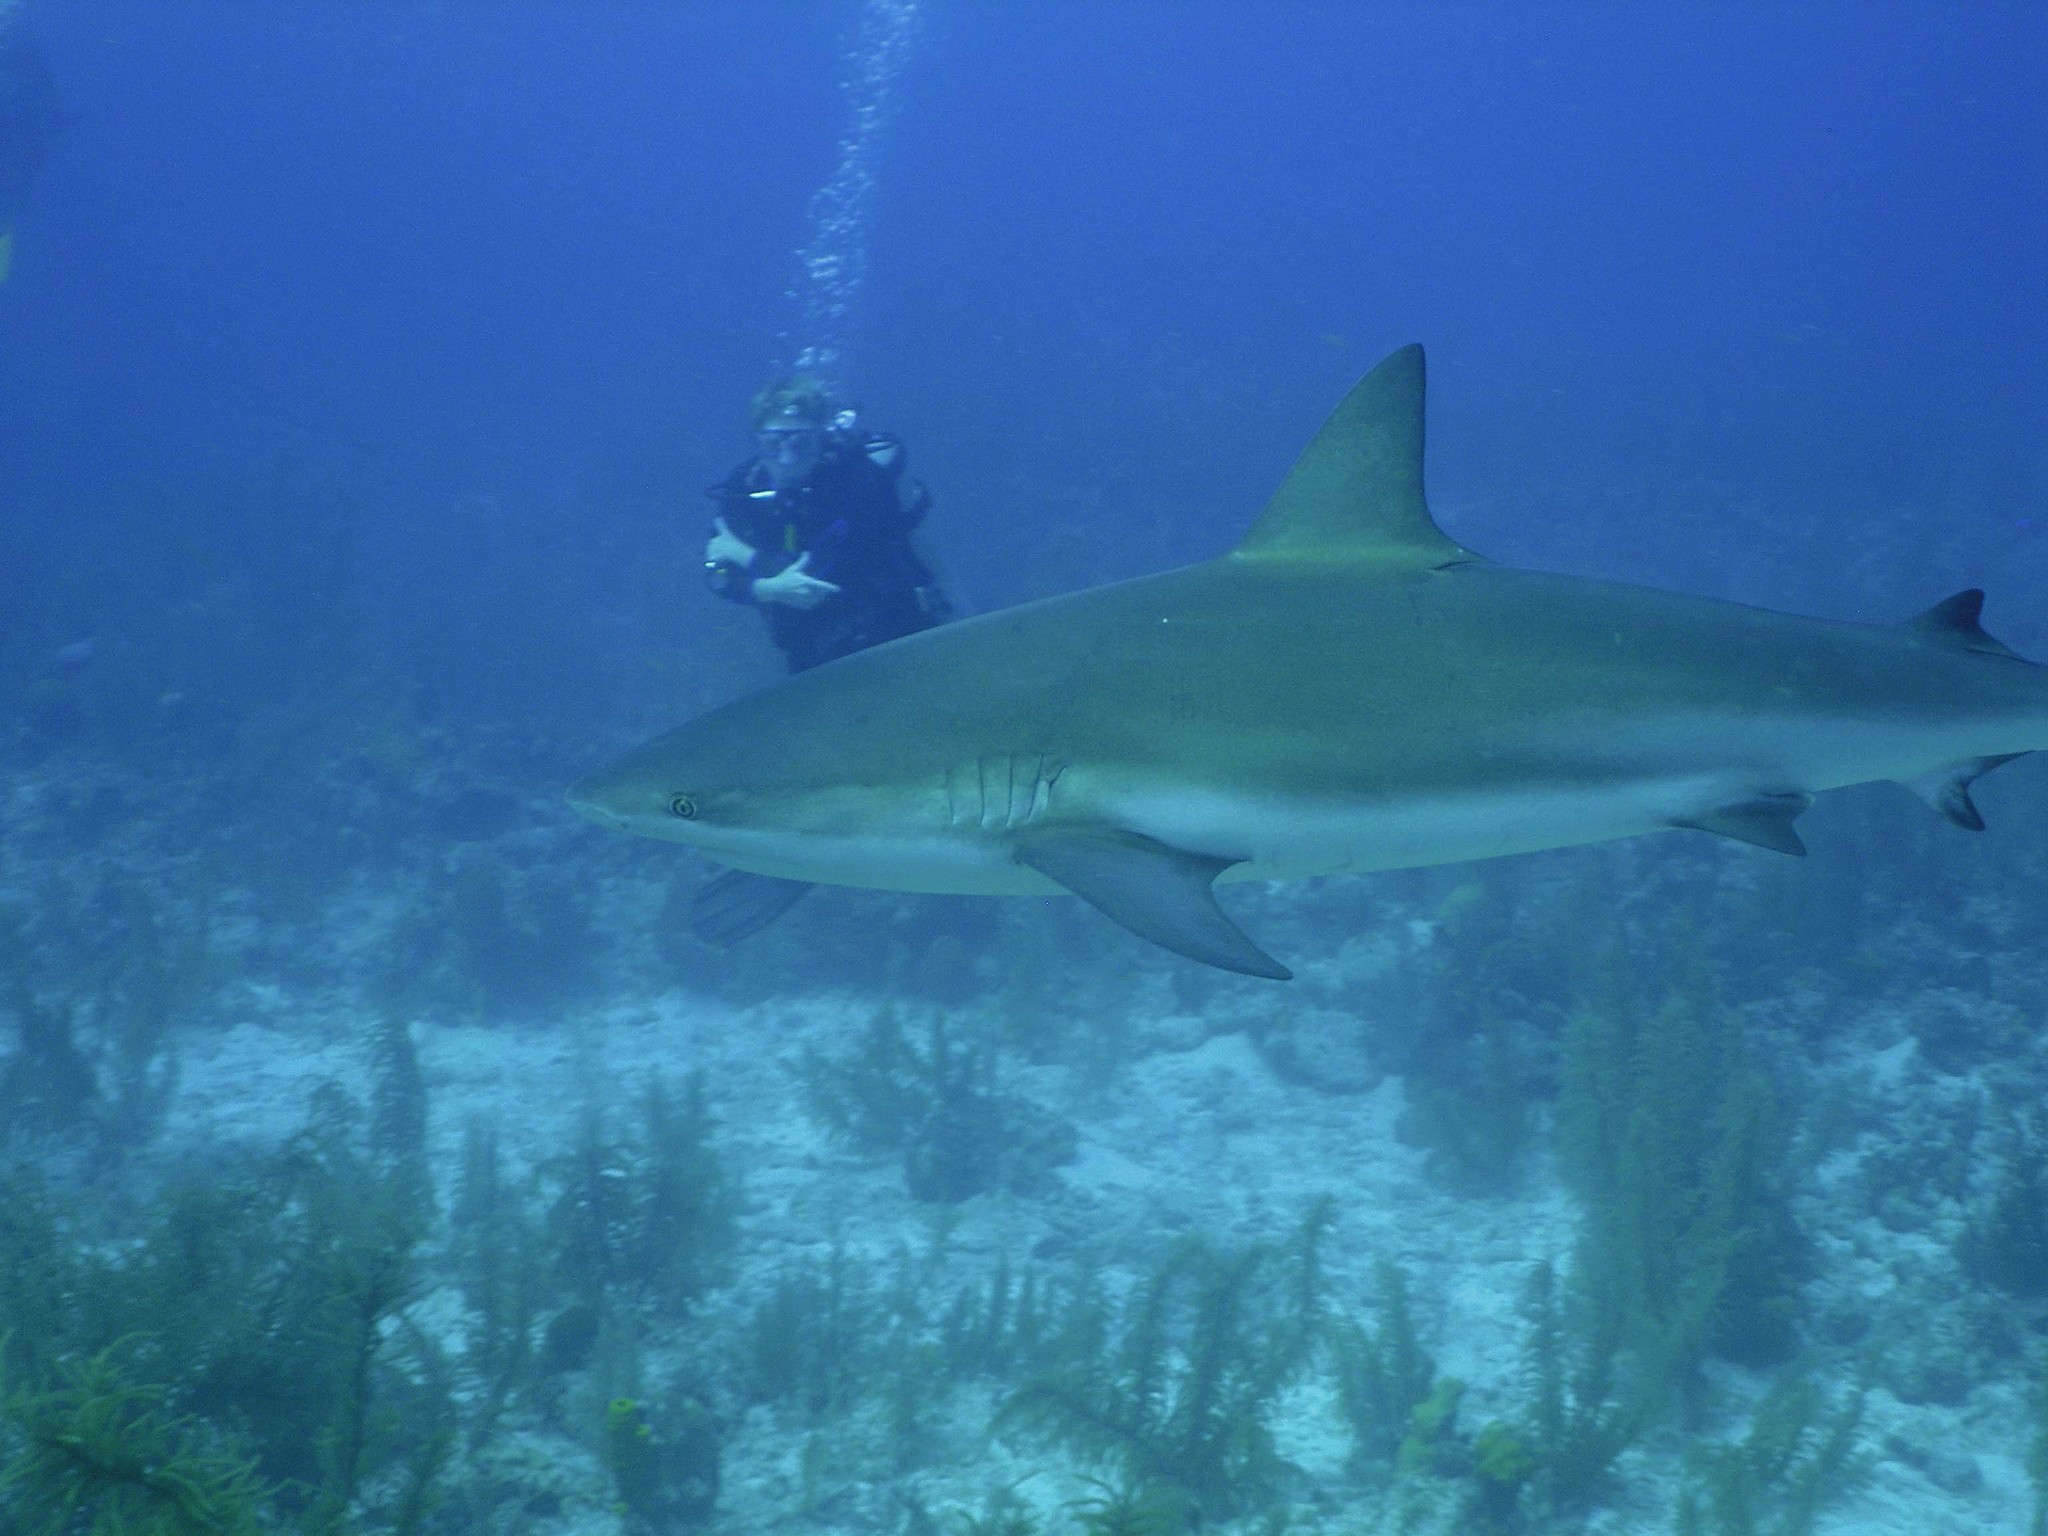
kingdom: Animalia
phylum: Chordata
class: Elasmobranchii
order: Carcharhiniformes
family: Carcharhinidae
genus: Carcharhinus
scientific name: Carcharhinus perezii
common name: Reef shark
